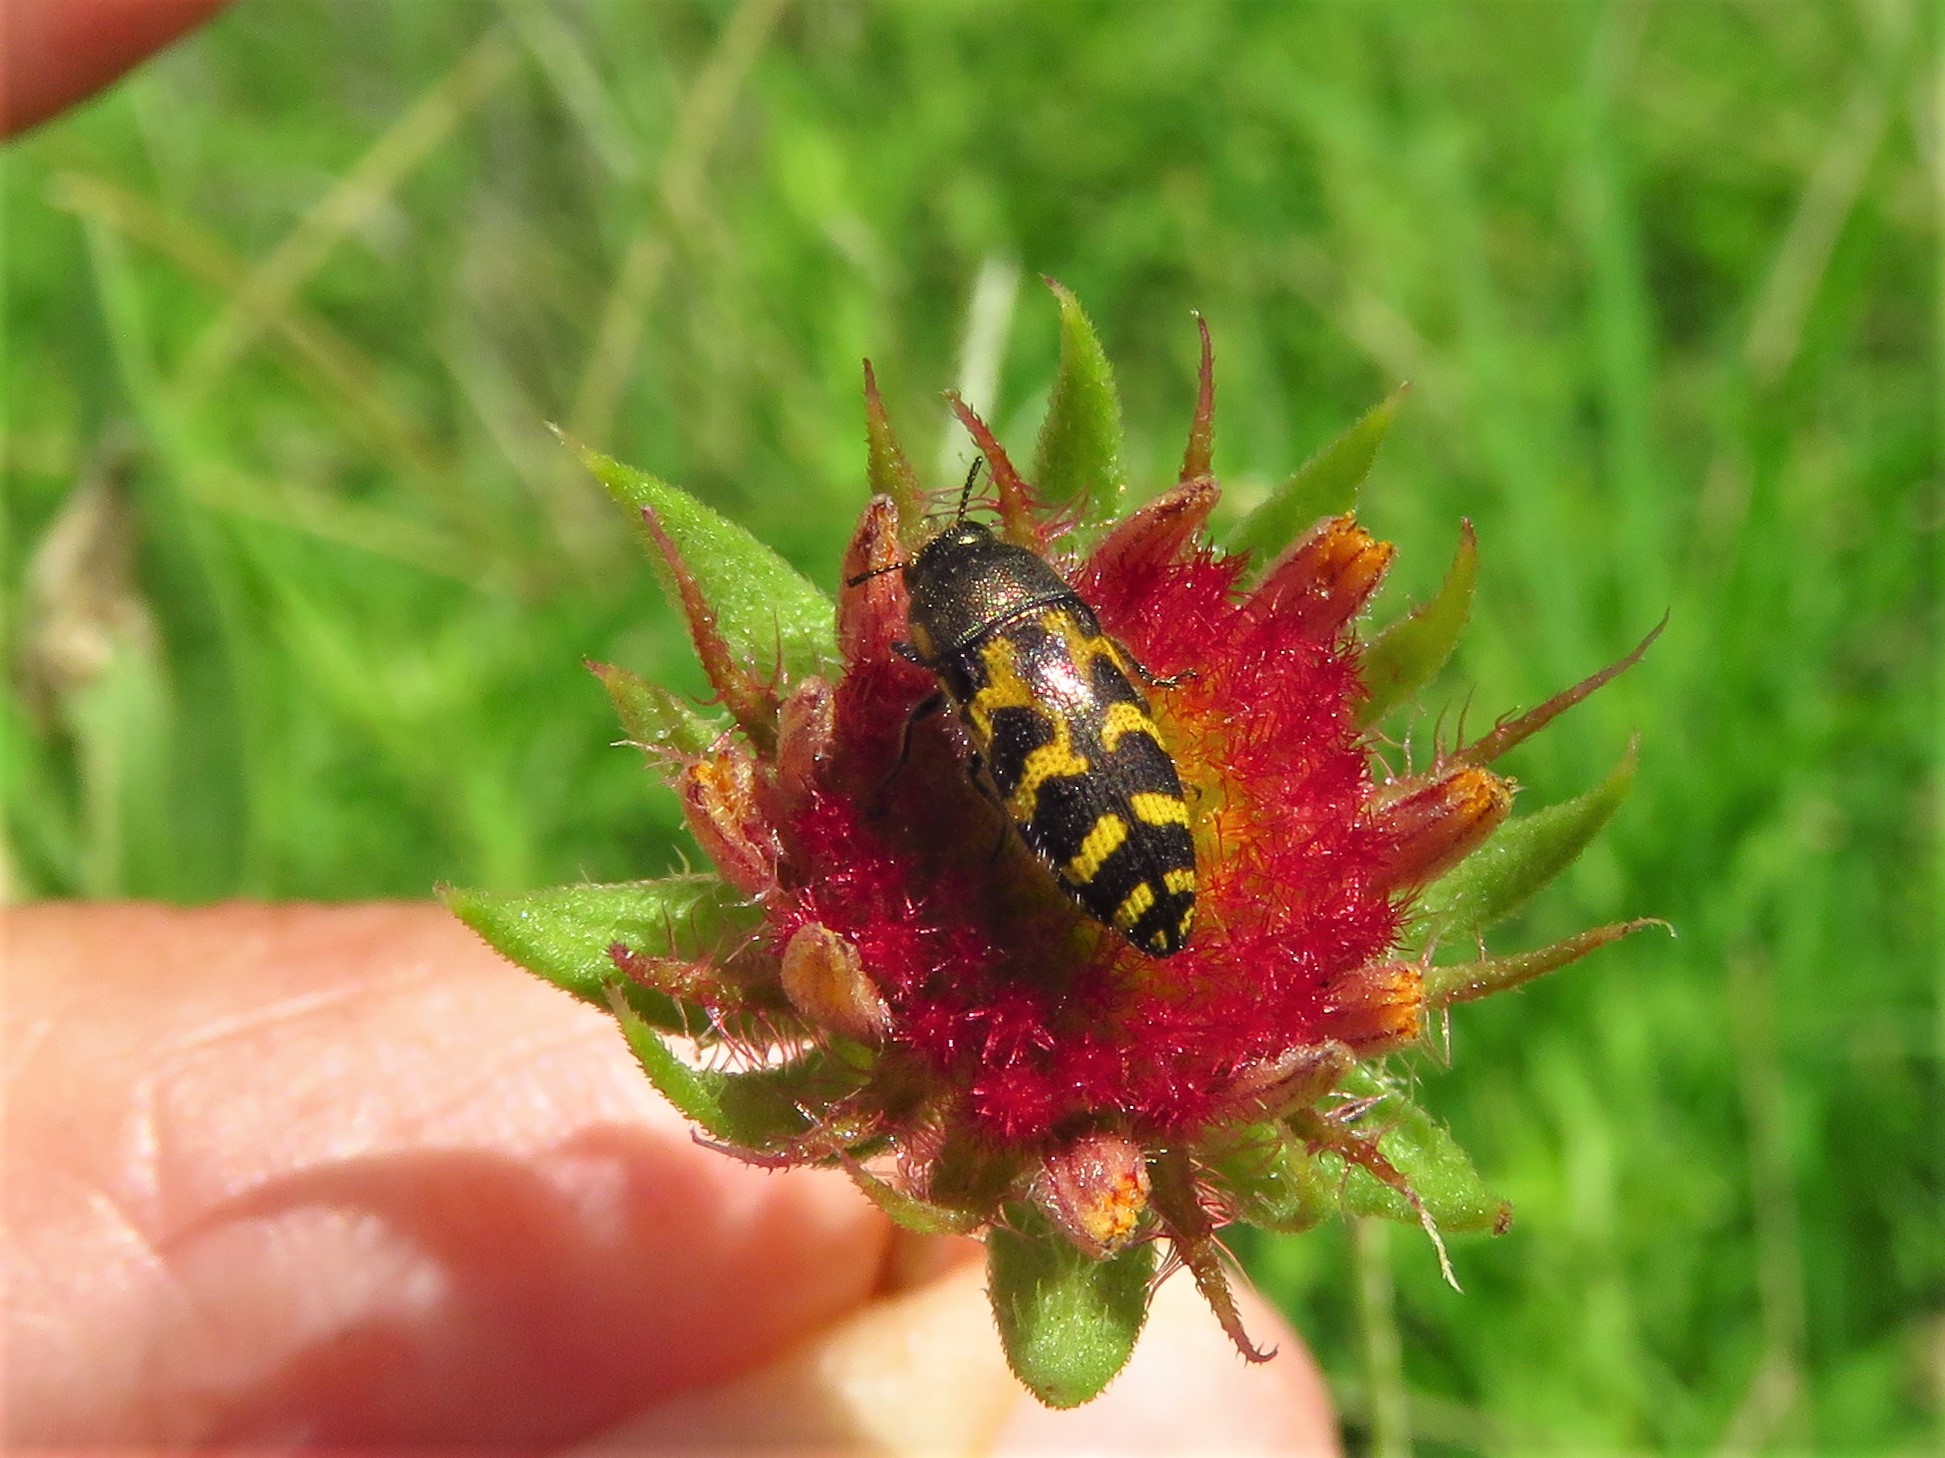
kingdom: Animalia
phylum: Arthropoda
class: Insecta
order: Coleoptera
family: Buprestidae
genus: Acmaeodera
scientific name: Acmaeodera mixta
